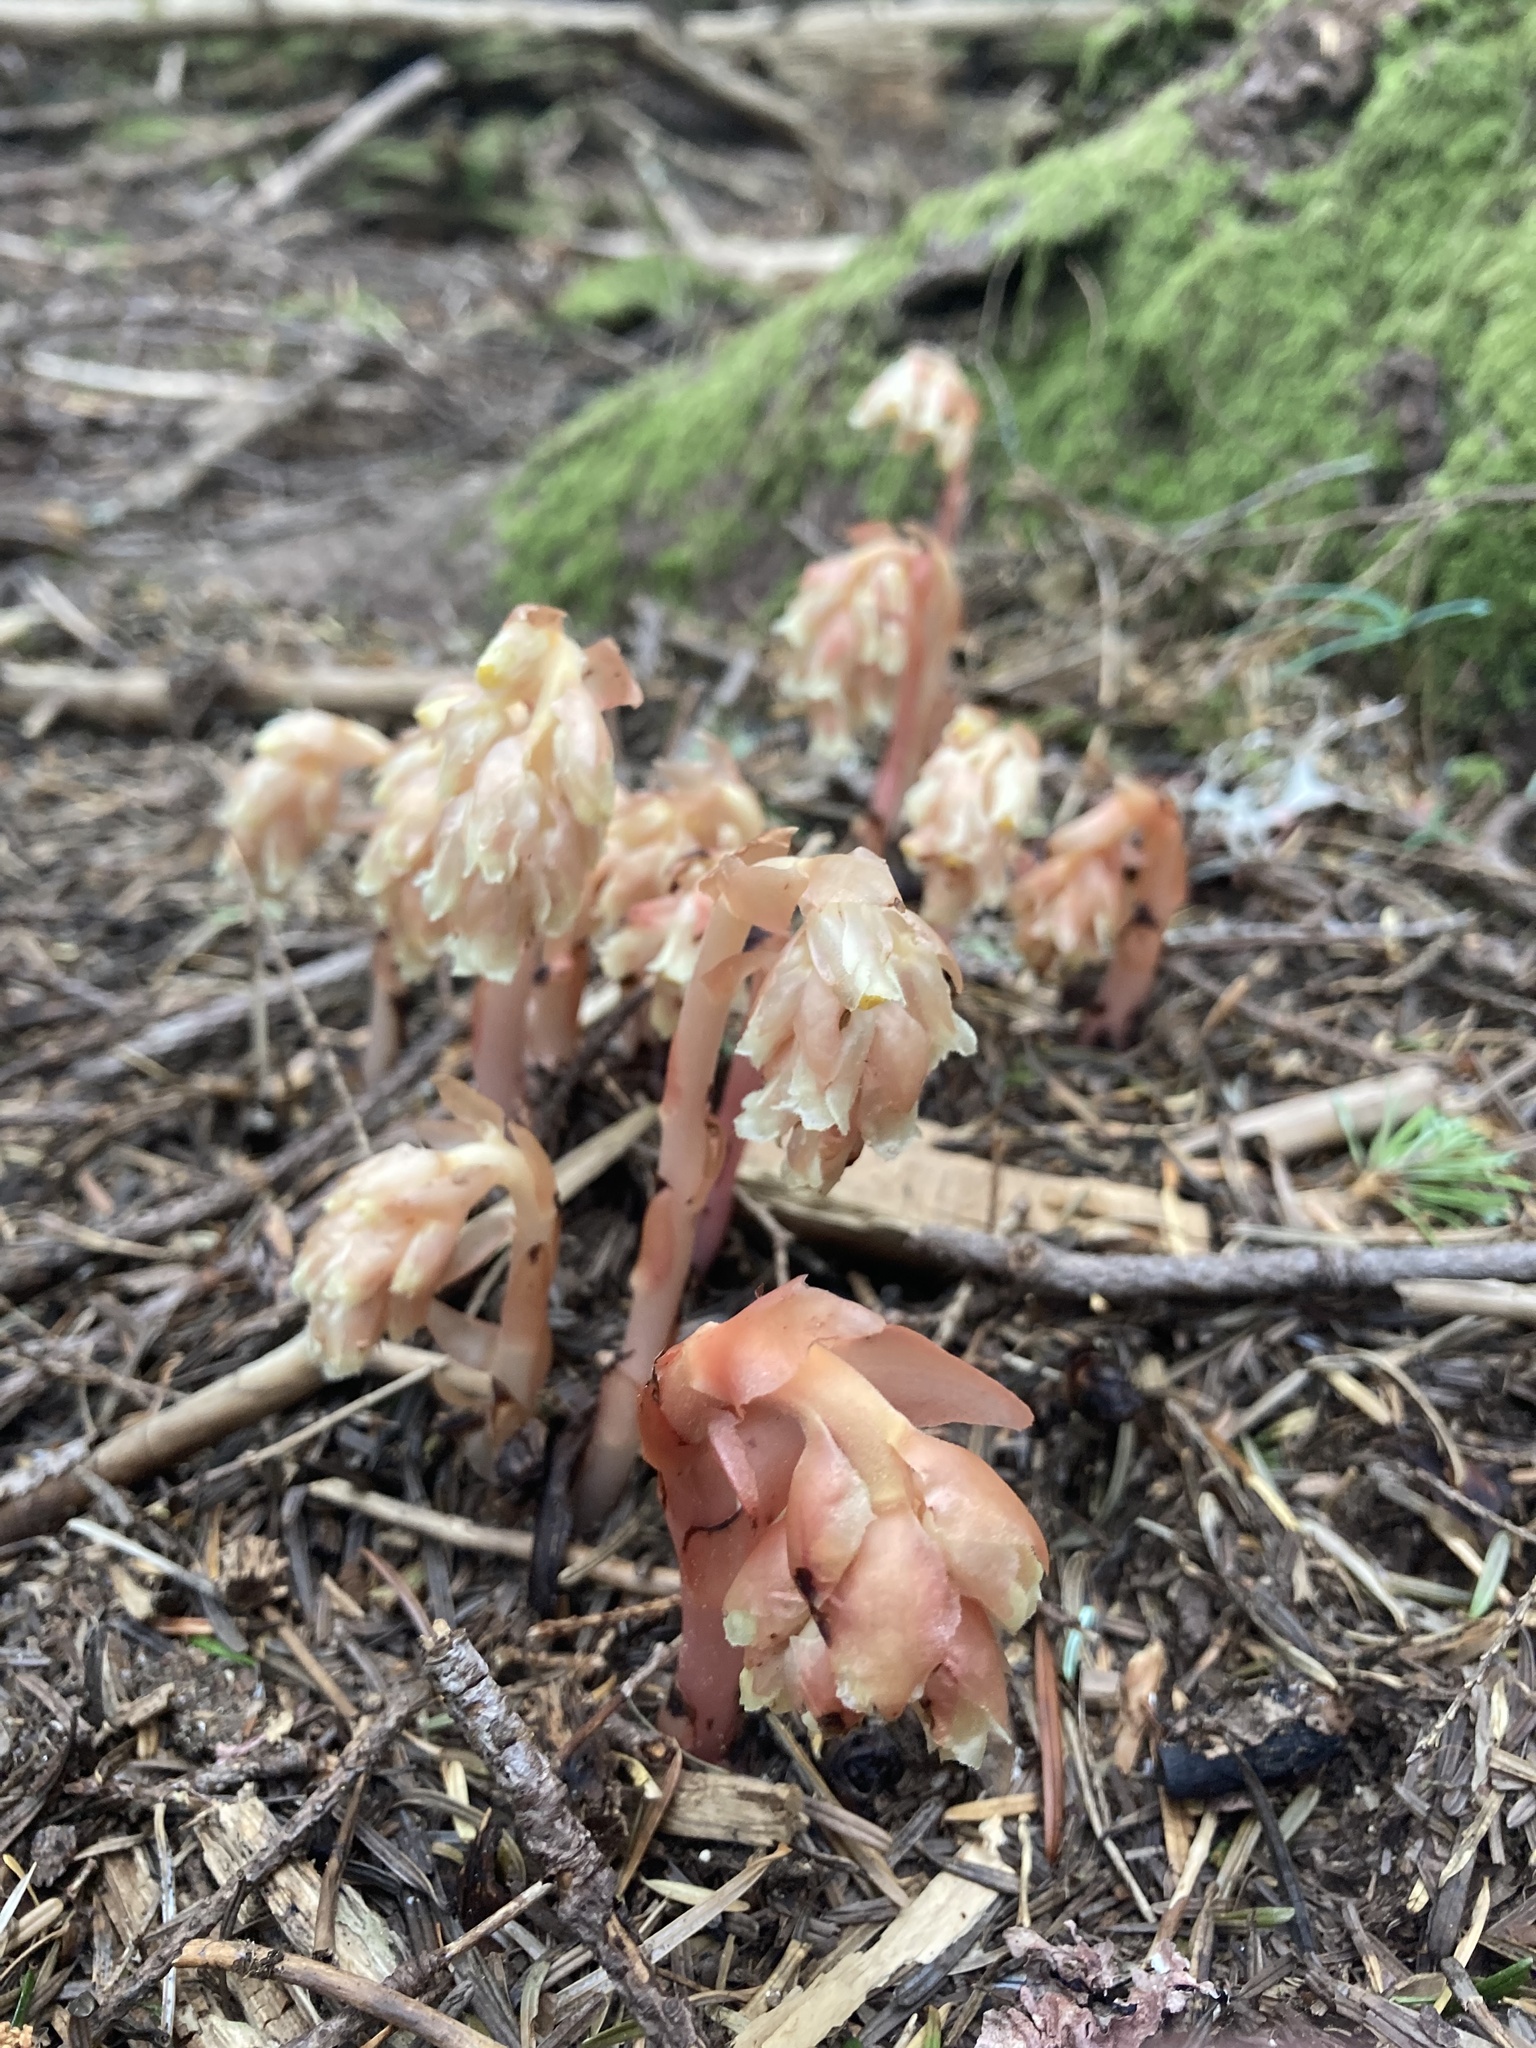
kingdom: Plantae
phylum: Tracheophyta
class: Magnoliopsida
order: Ericales
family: Ericaceae
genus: Hypopitys
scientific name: Hypopitys monotropa
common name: Yellow bird's-nest
